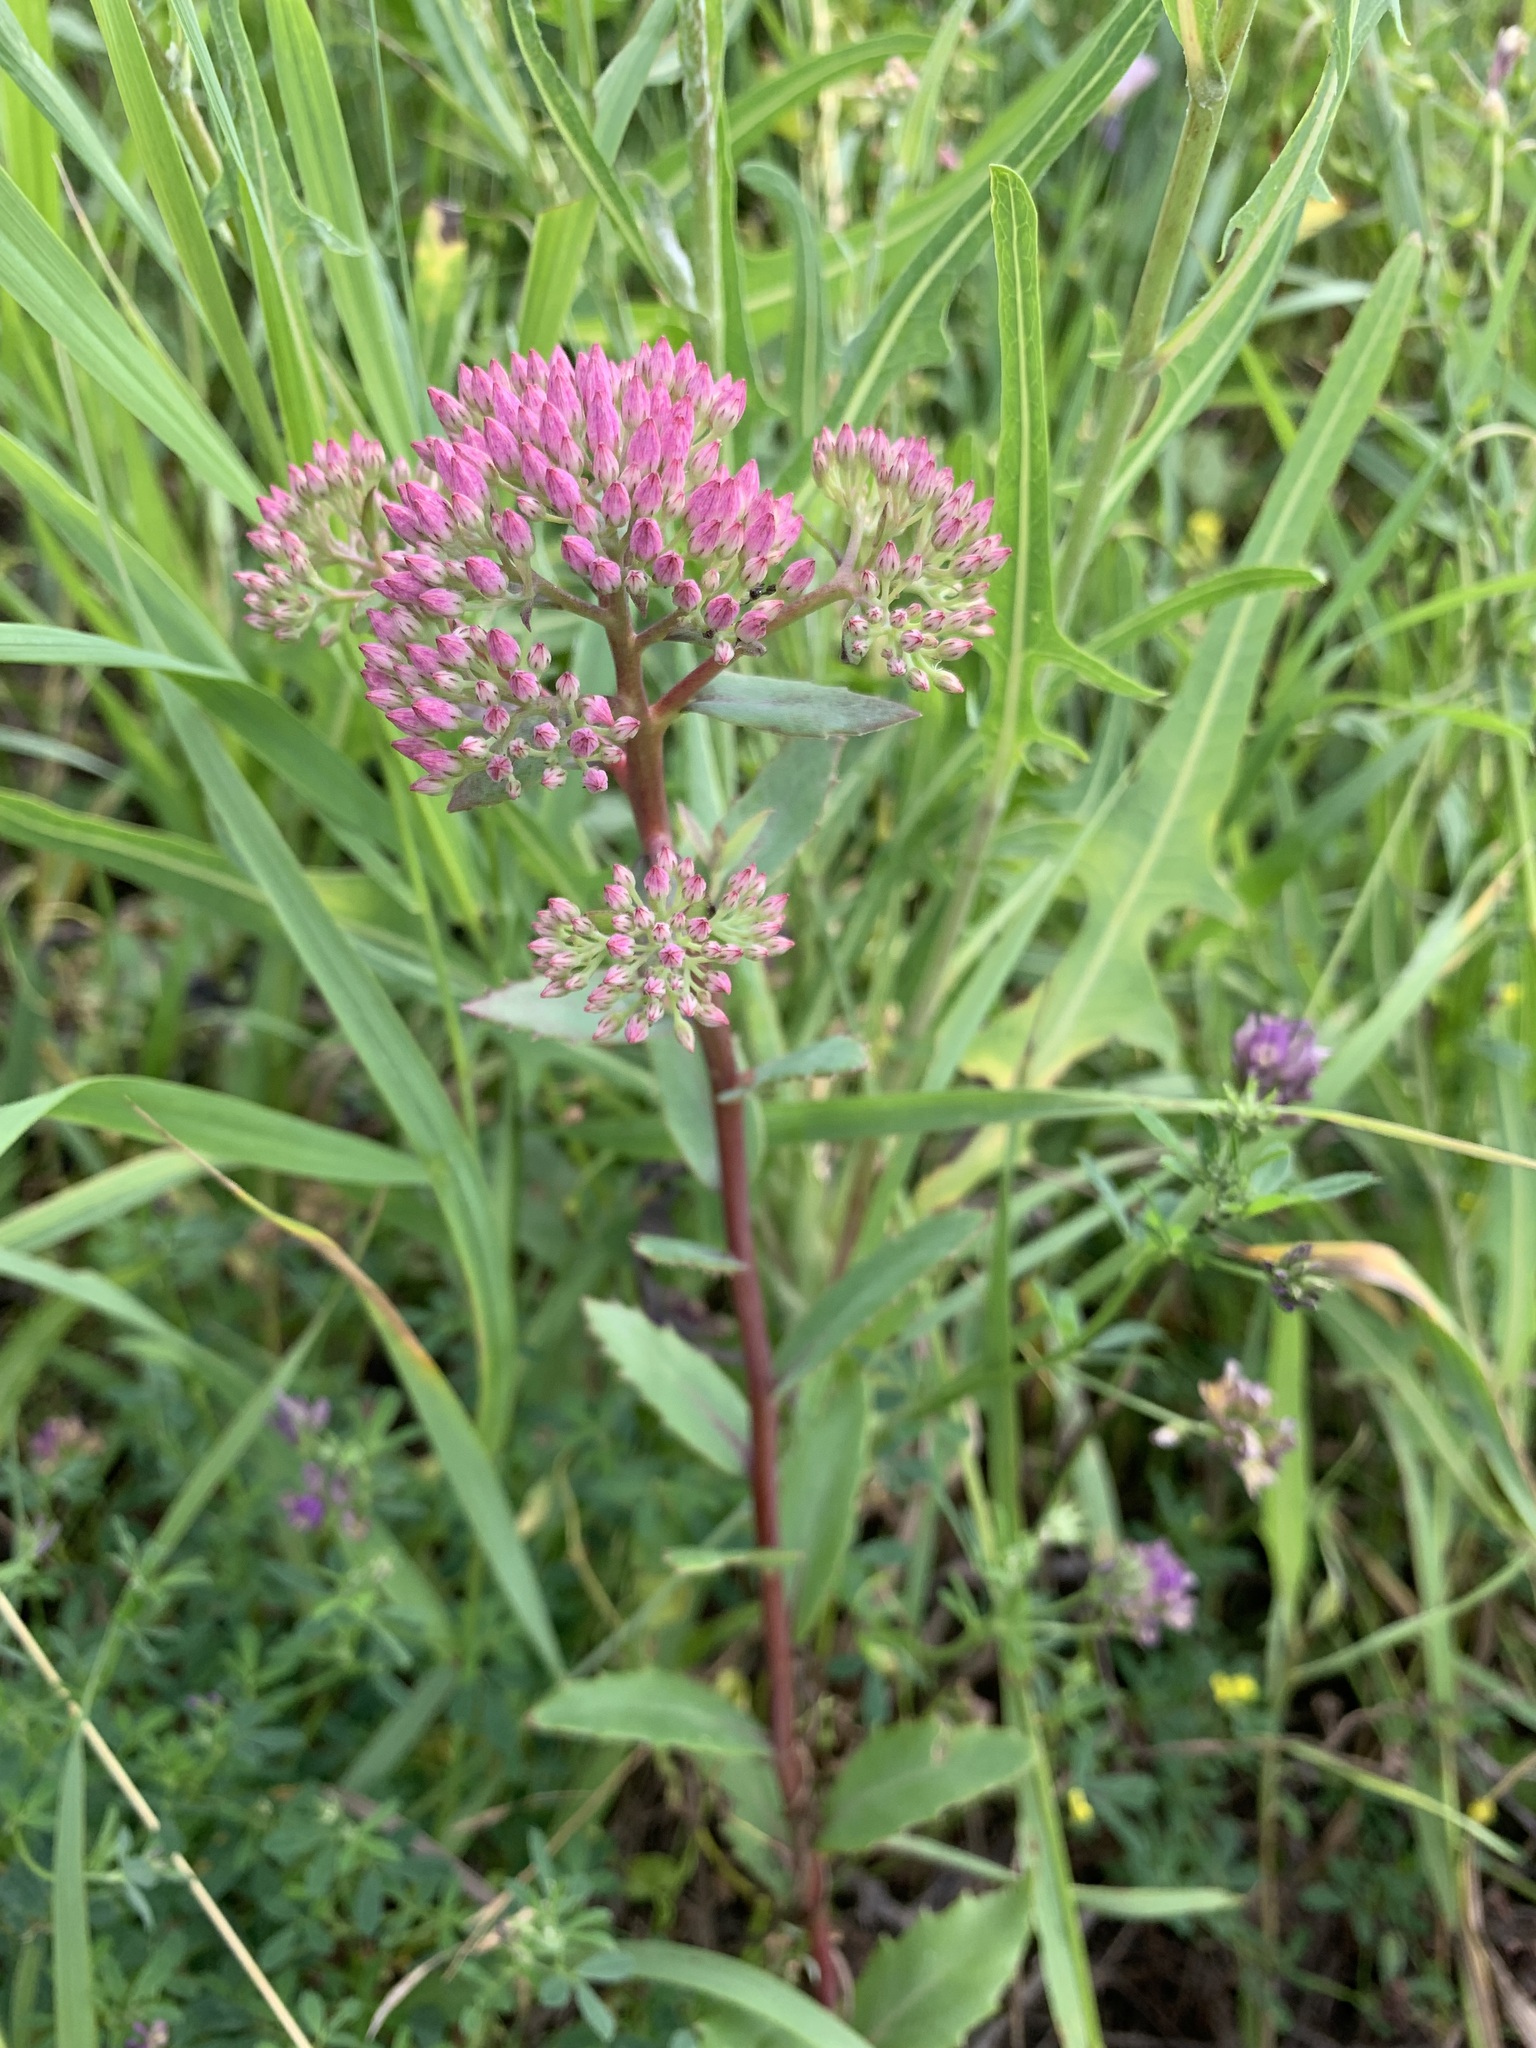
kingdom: Plantae
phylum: Tracheophyta
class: Magnoliopsida
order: Saxifragales
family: Crassulaceae
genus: Hylotelephium
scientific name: Hylotelephium telephium
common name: Live-forever
